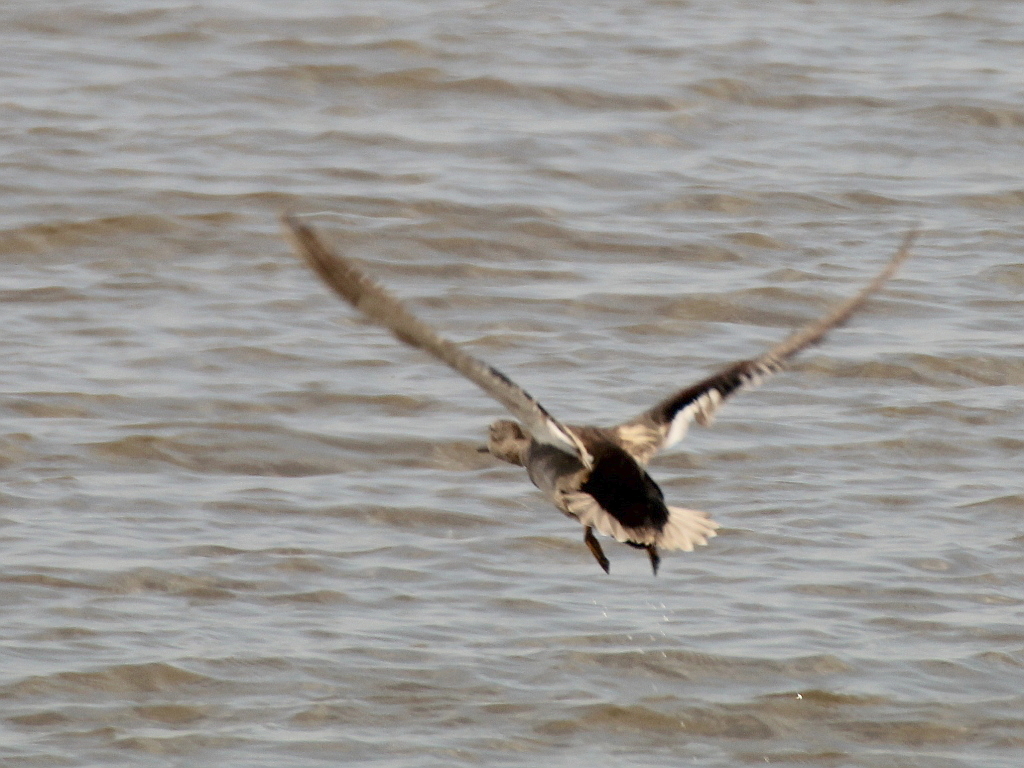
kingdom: Animalia
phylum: Chordata
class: Aves
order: Anseriformes
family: Anatidae
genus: Mareca
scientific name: Mareca strepera
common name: Gadwall
